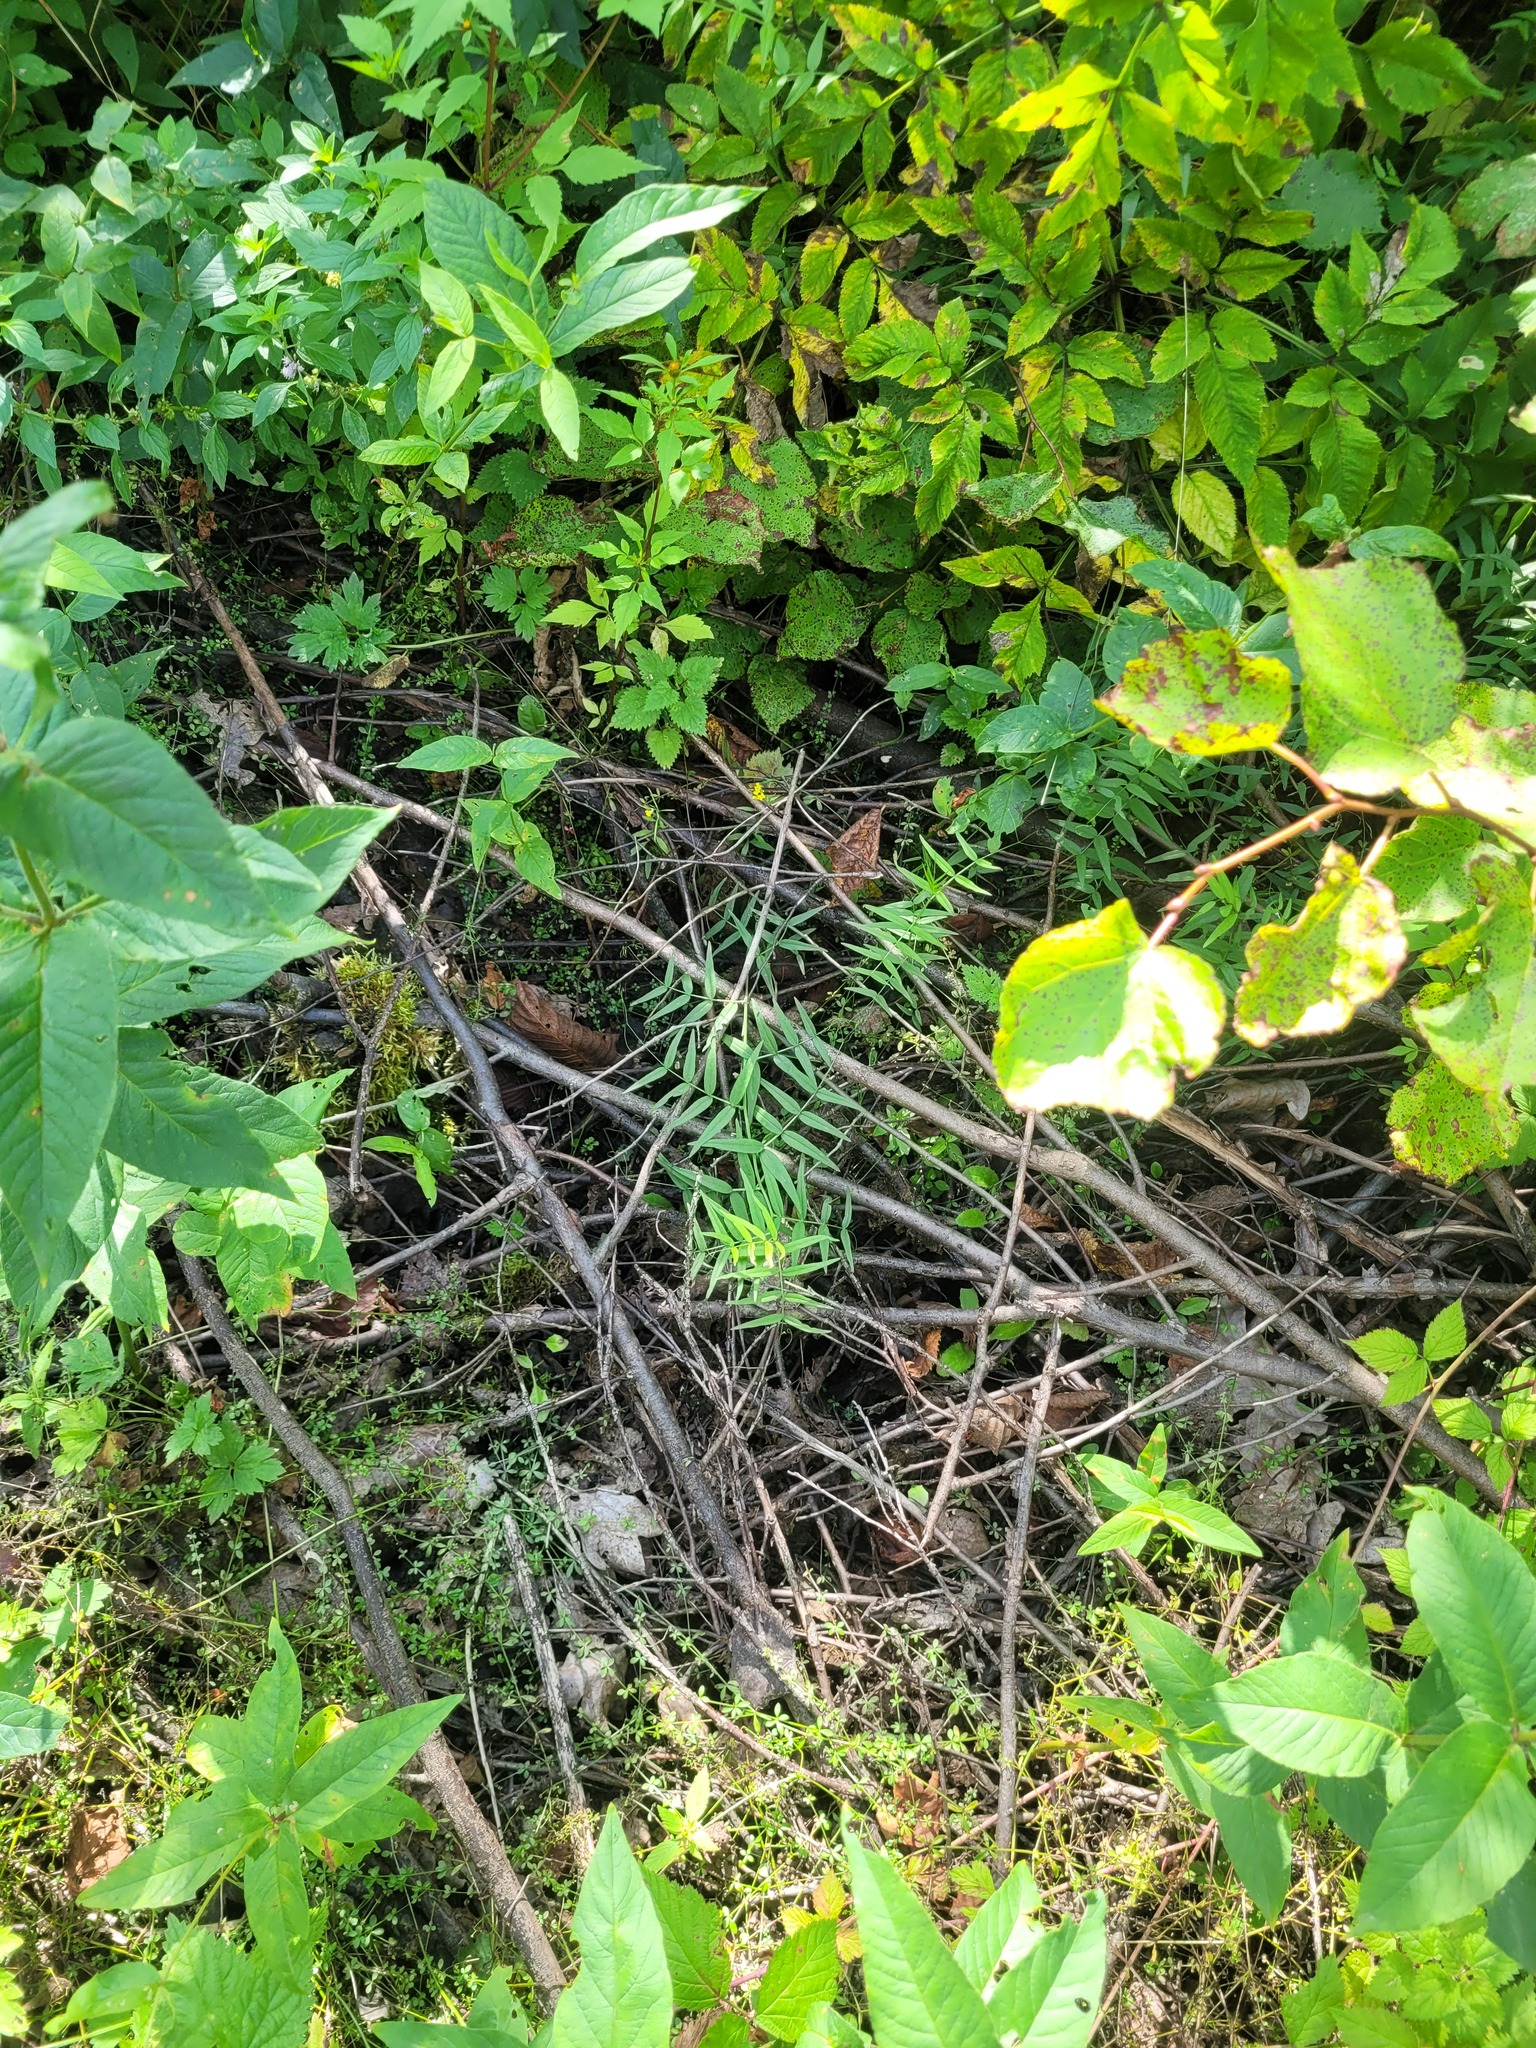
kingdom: Plantae
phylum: Tracheophyta
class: Magnoliopsida
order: Fabales
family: Fabaceae
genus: Vicia
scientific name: Vicia sepium
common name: Bush vetch
